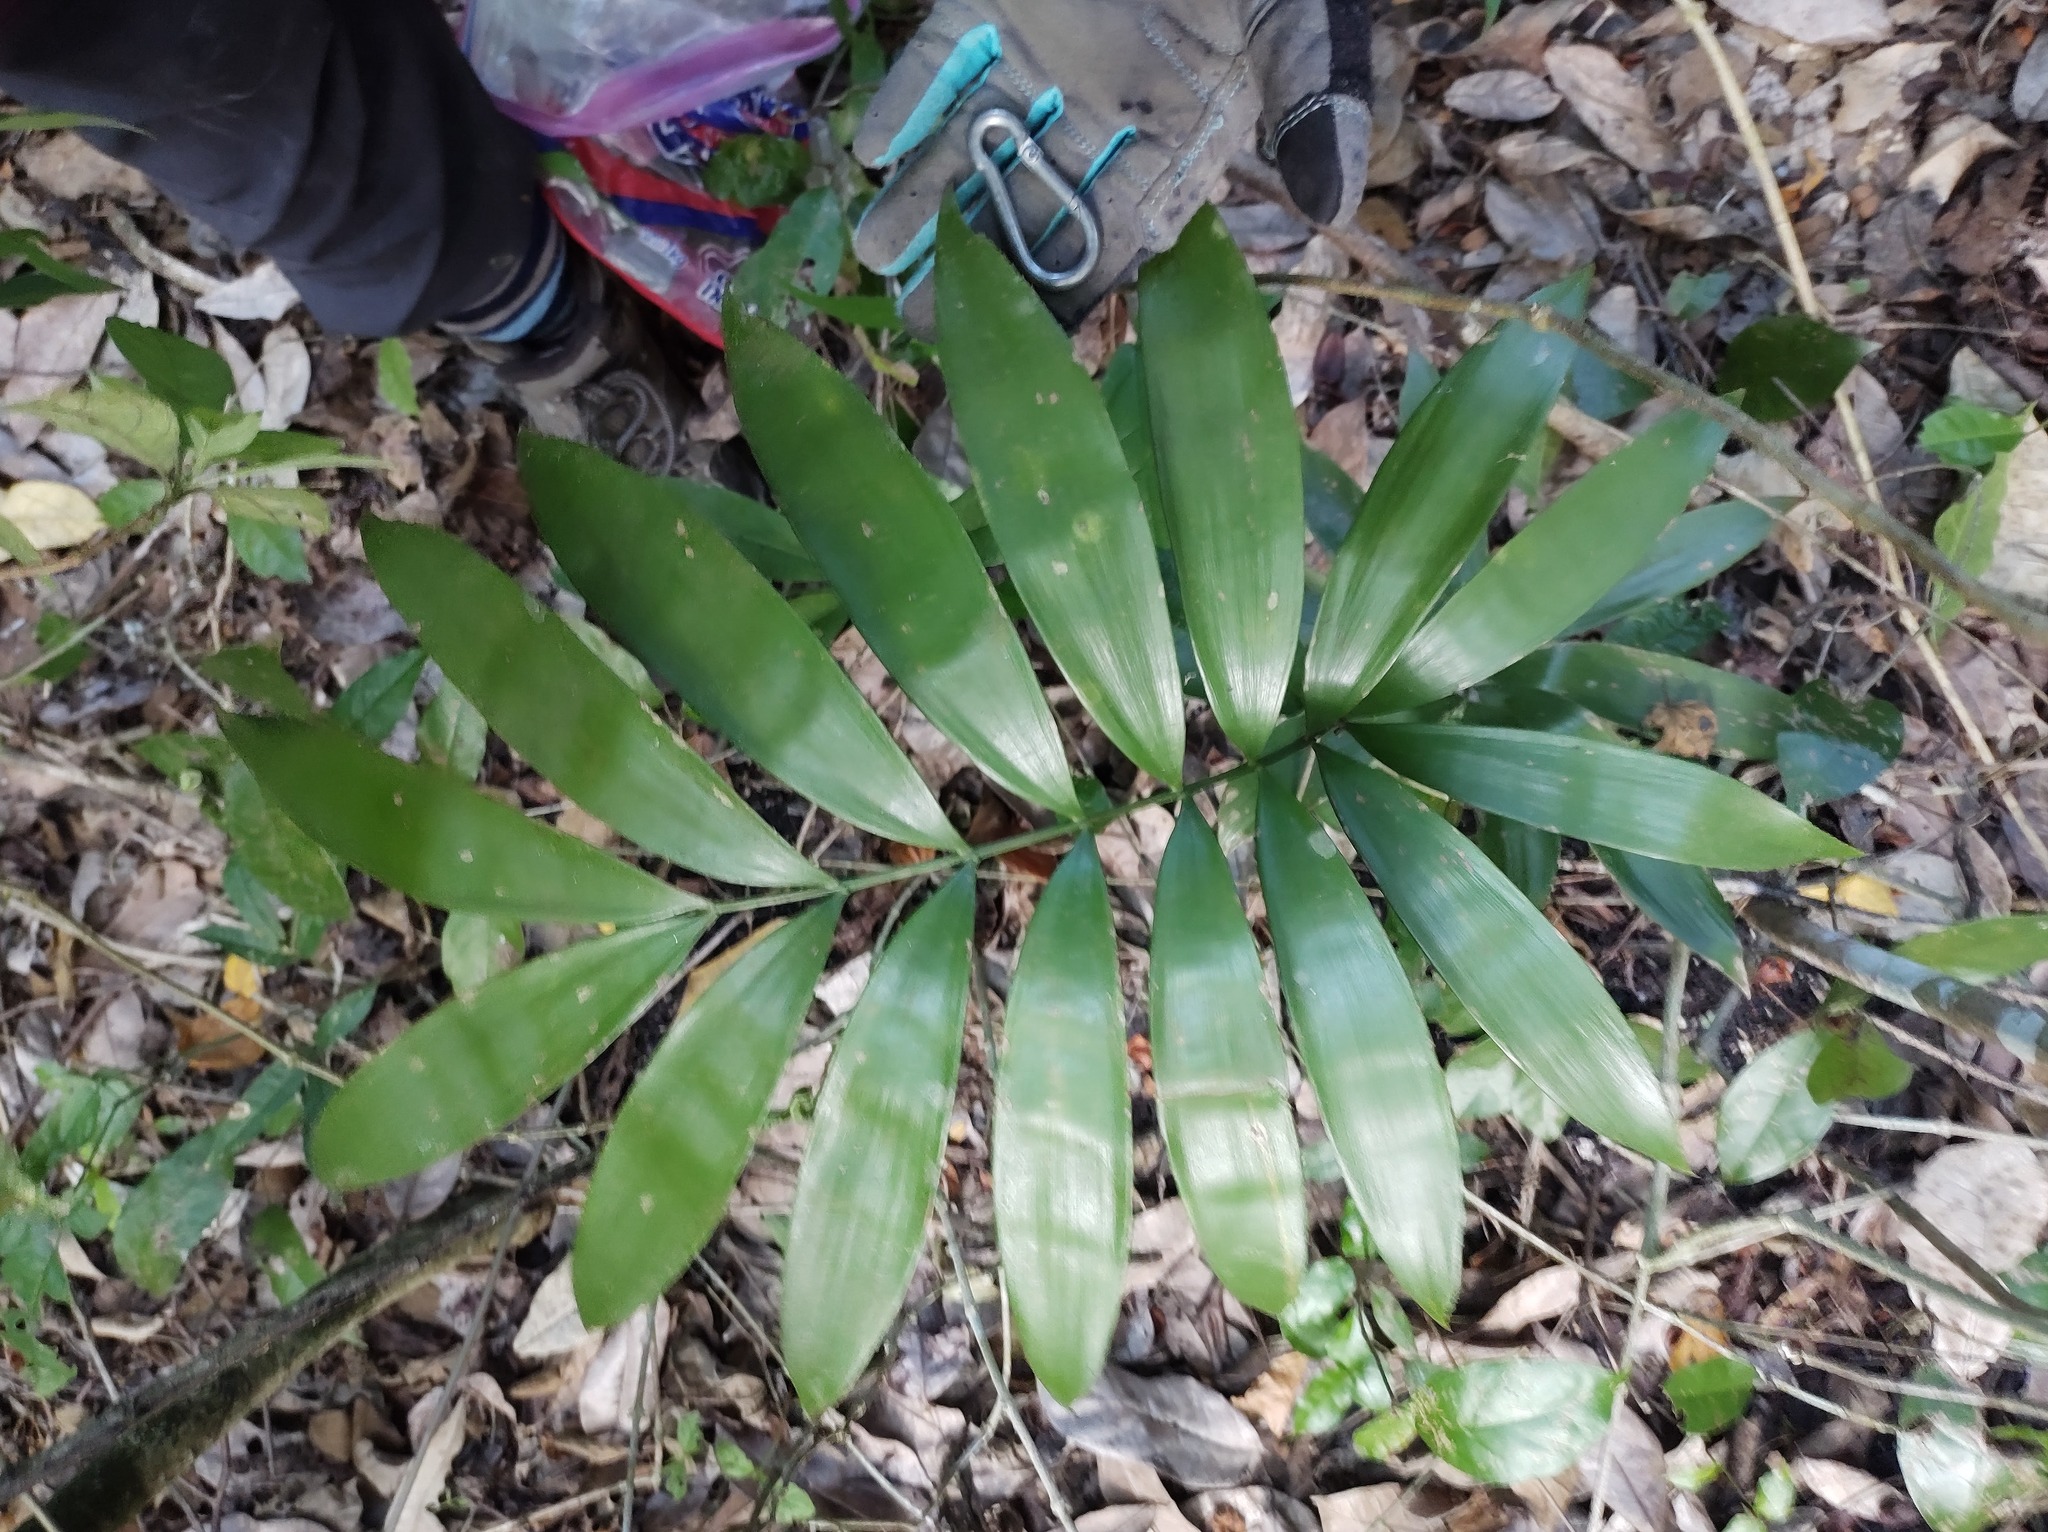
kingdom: Plantae
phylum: Tracheophyta
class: Cycadopsida
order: Cycadales
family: Zamiaceae
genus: Zamia
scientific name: Zamia prasina
